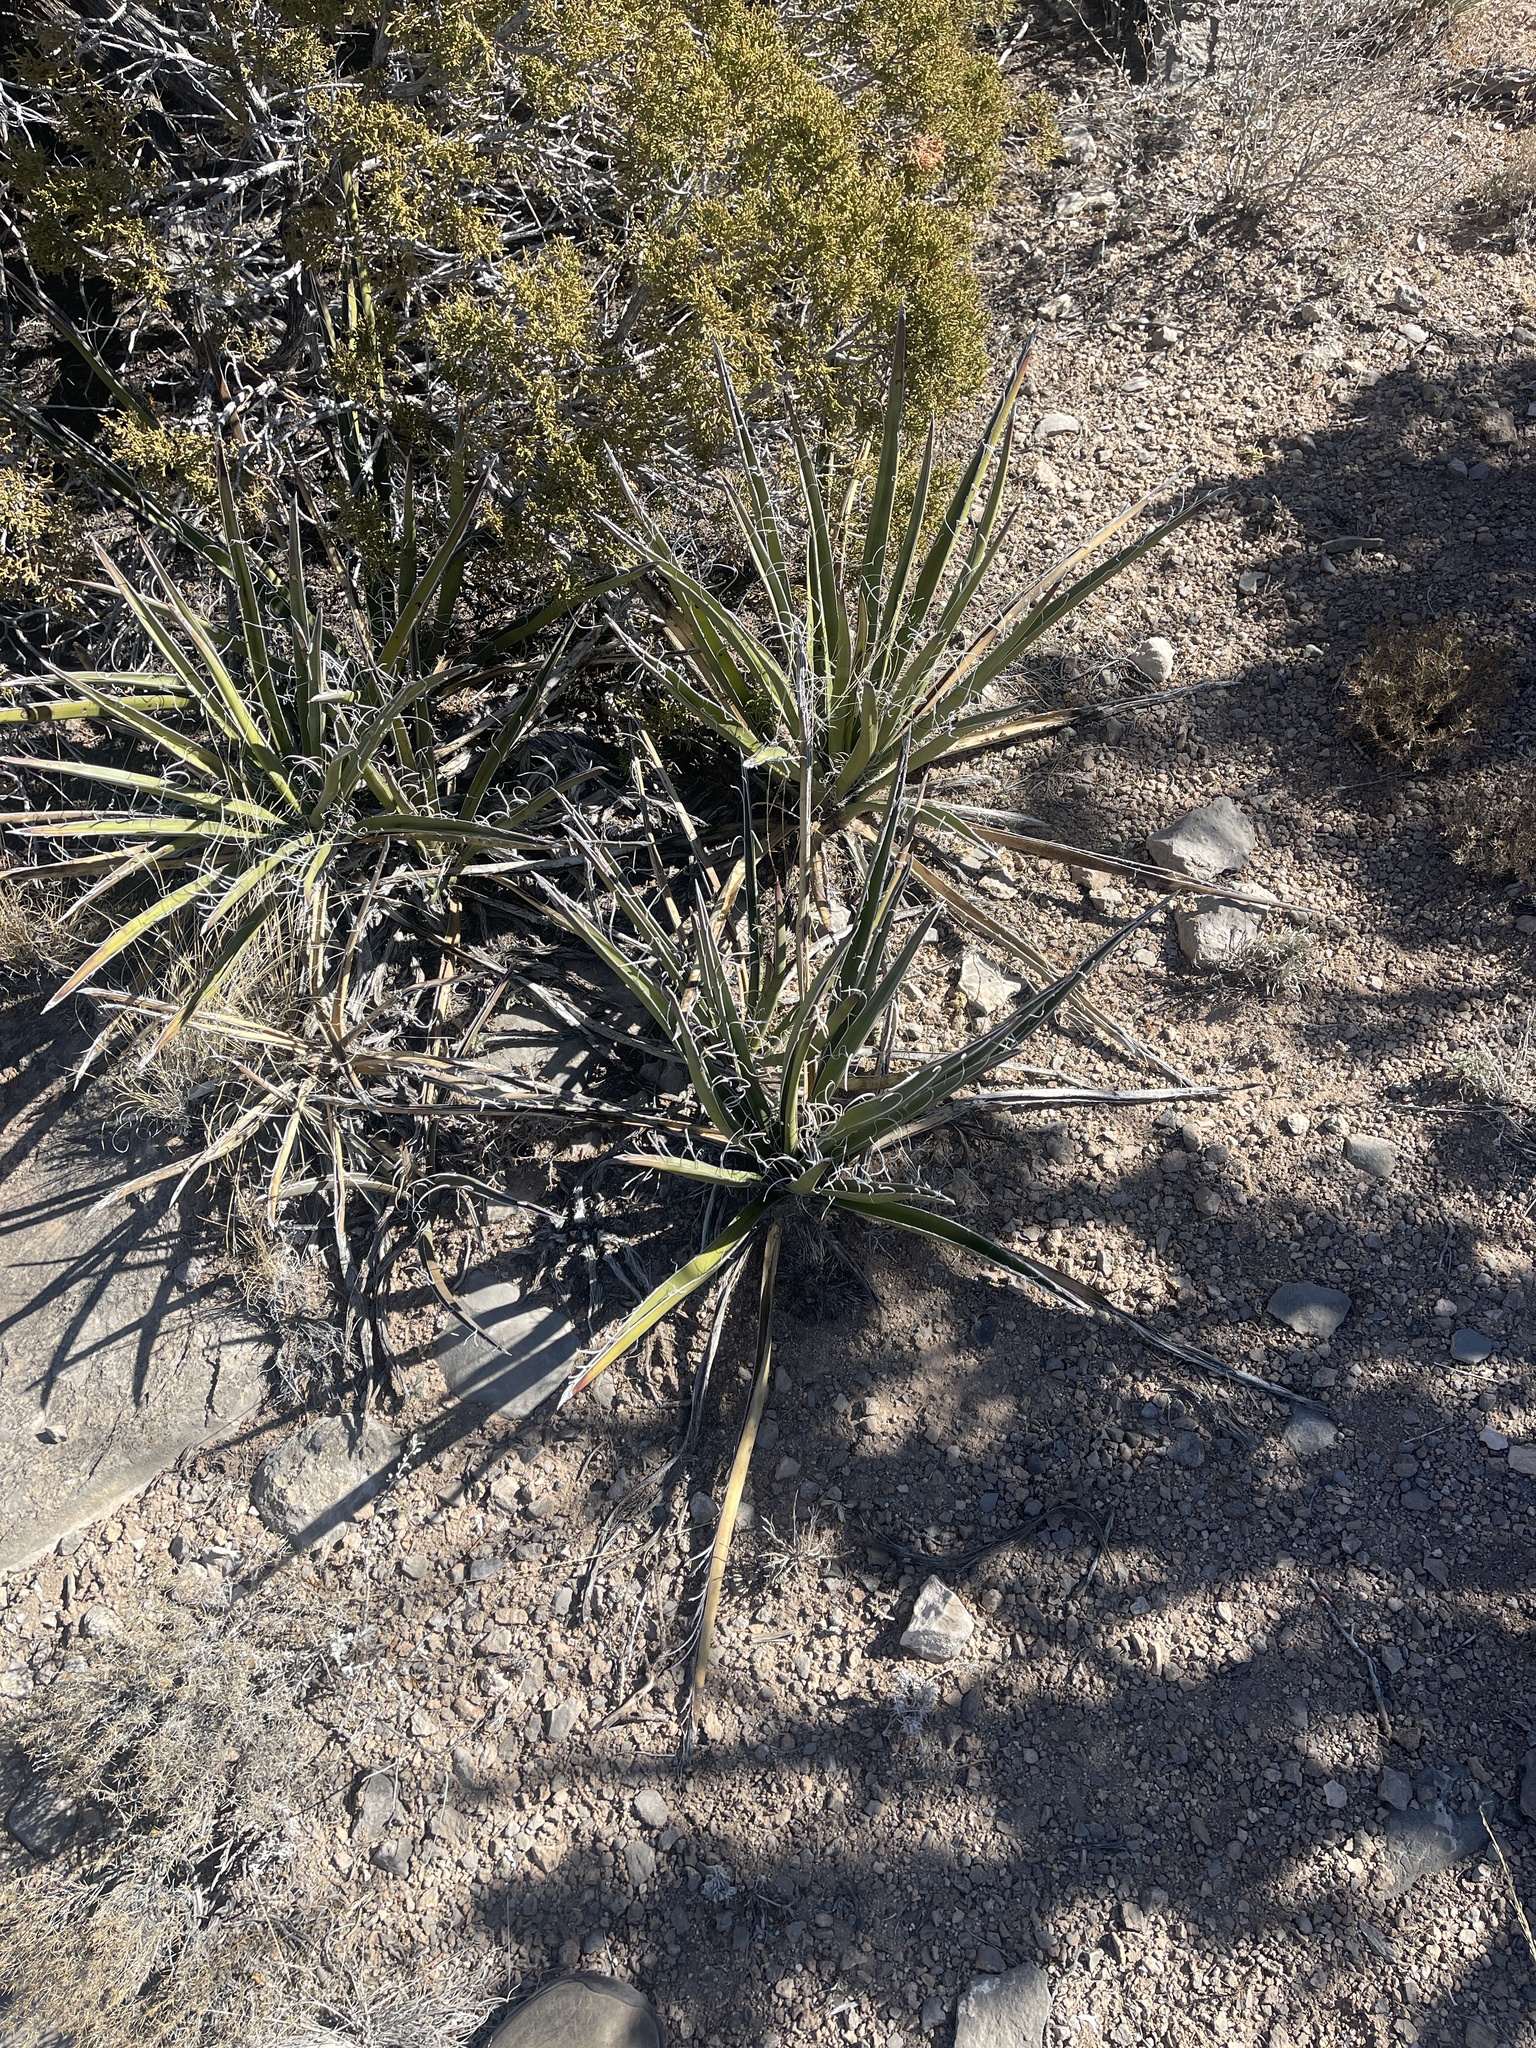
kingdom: Plantae
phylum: Tracheophyta
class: Liliopsida
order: Asparagales
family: Asparagaceae
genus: Yucca
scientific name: Yucca baccata
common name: Banana yucca
